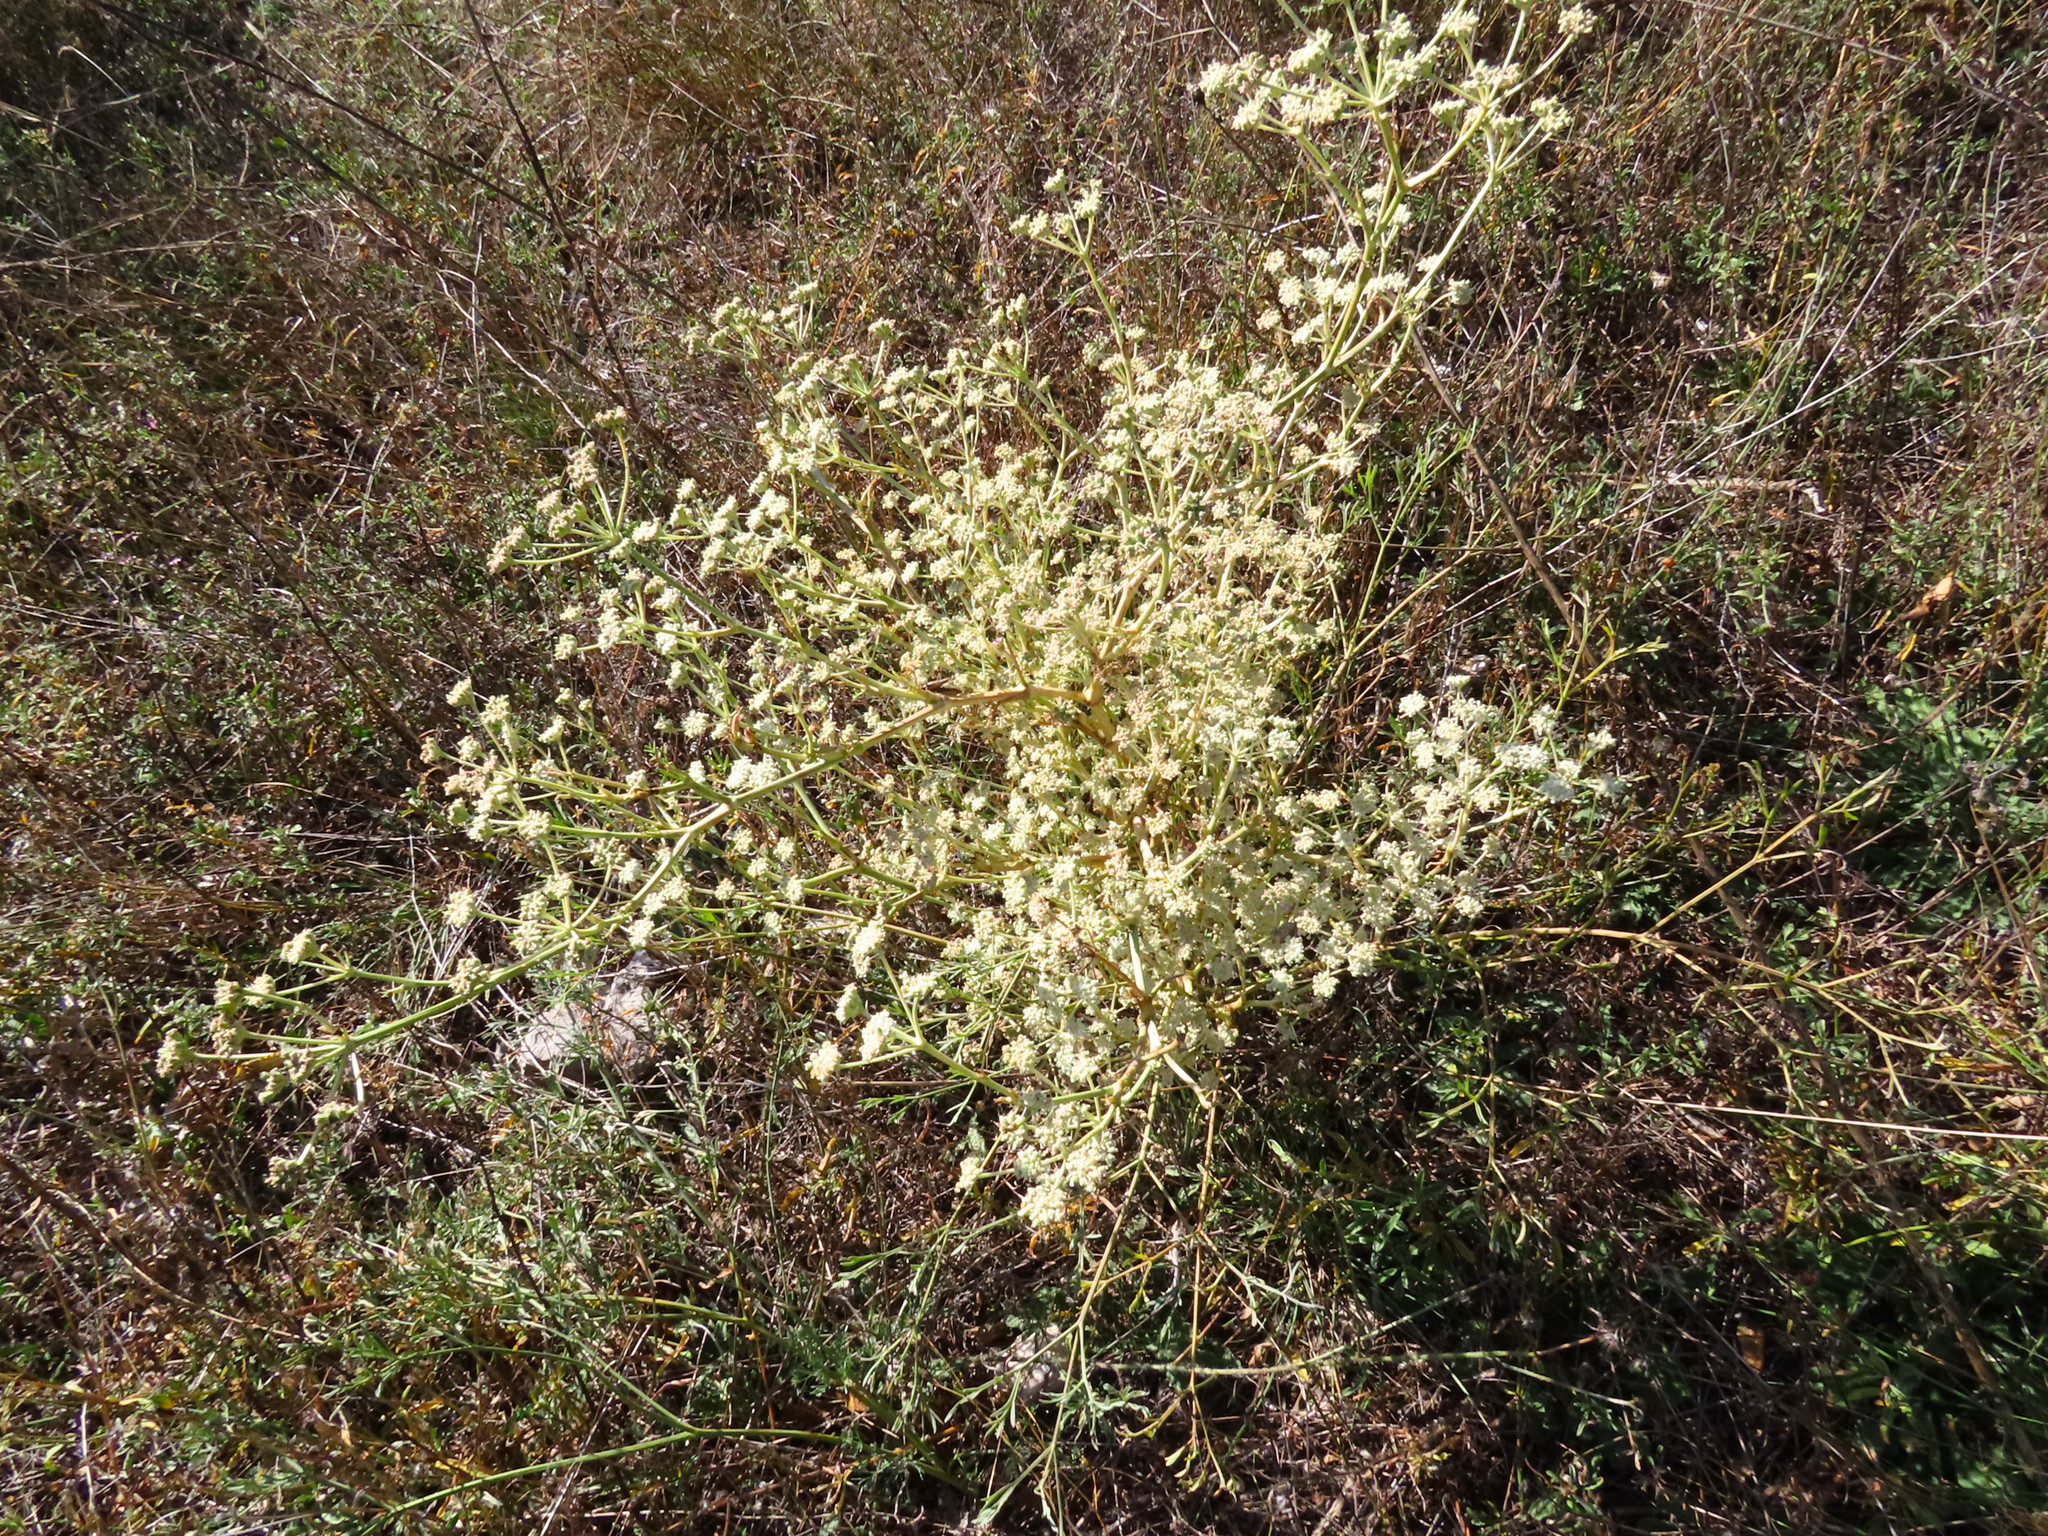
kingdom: Plantae
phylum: Tracheophyta
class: Magnoliopsida
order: Apiales
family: Apiaceae
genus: Seseli
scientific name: Seseli tortuosum
